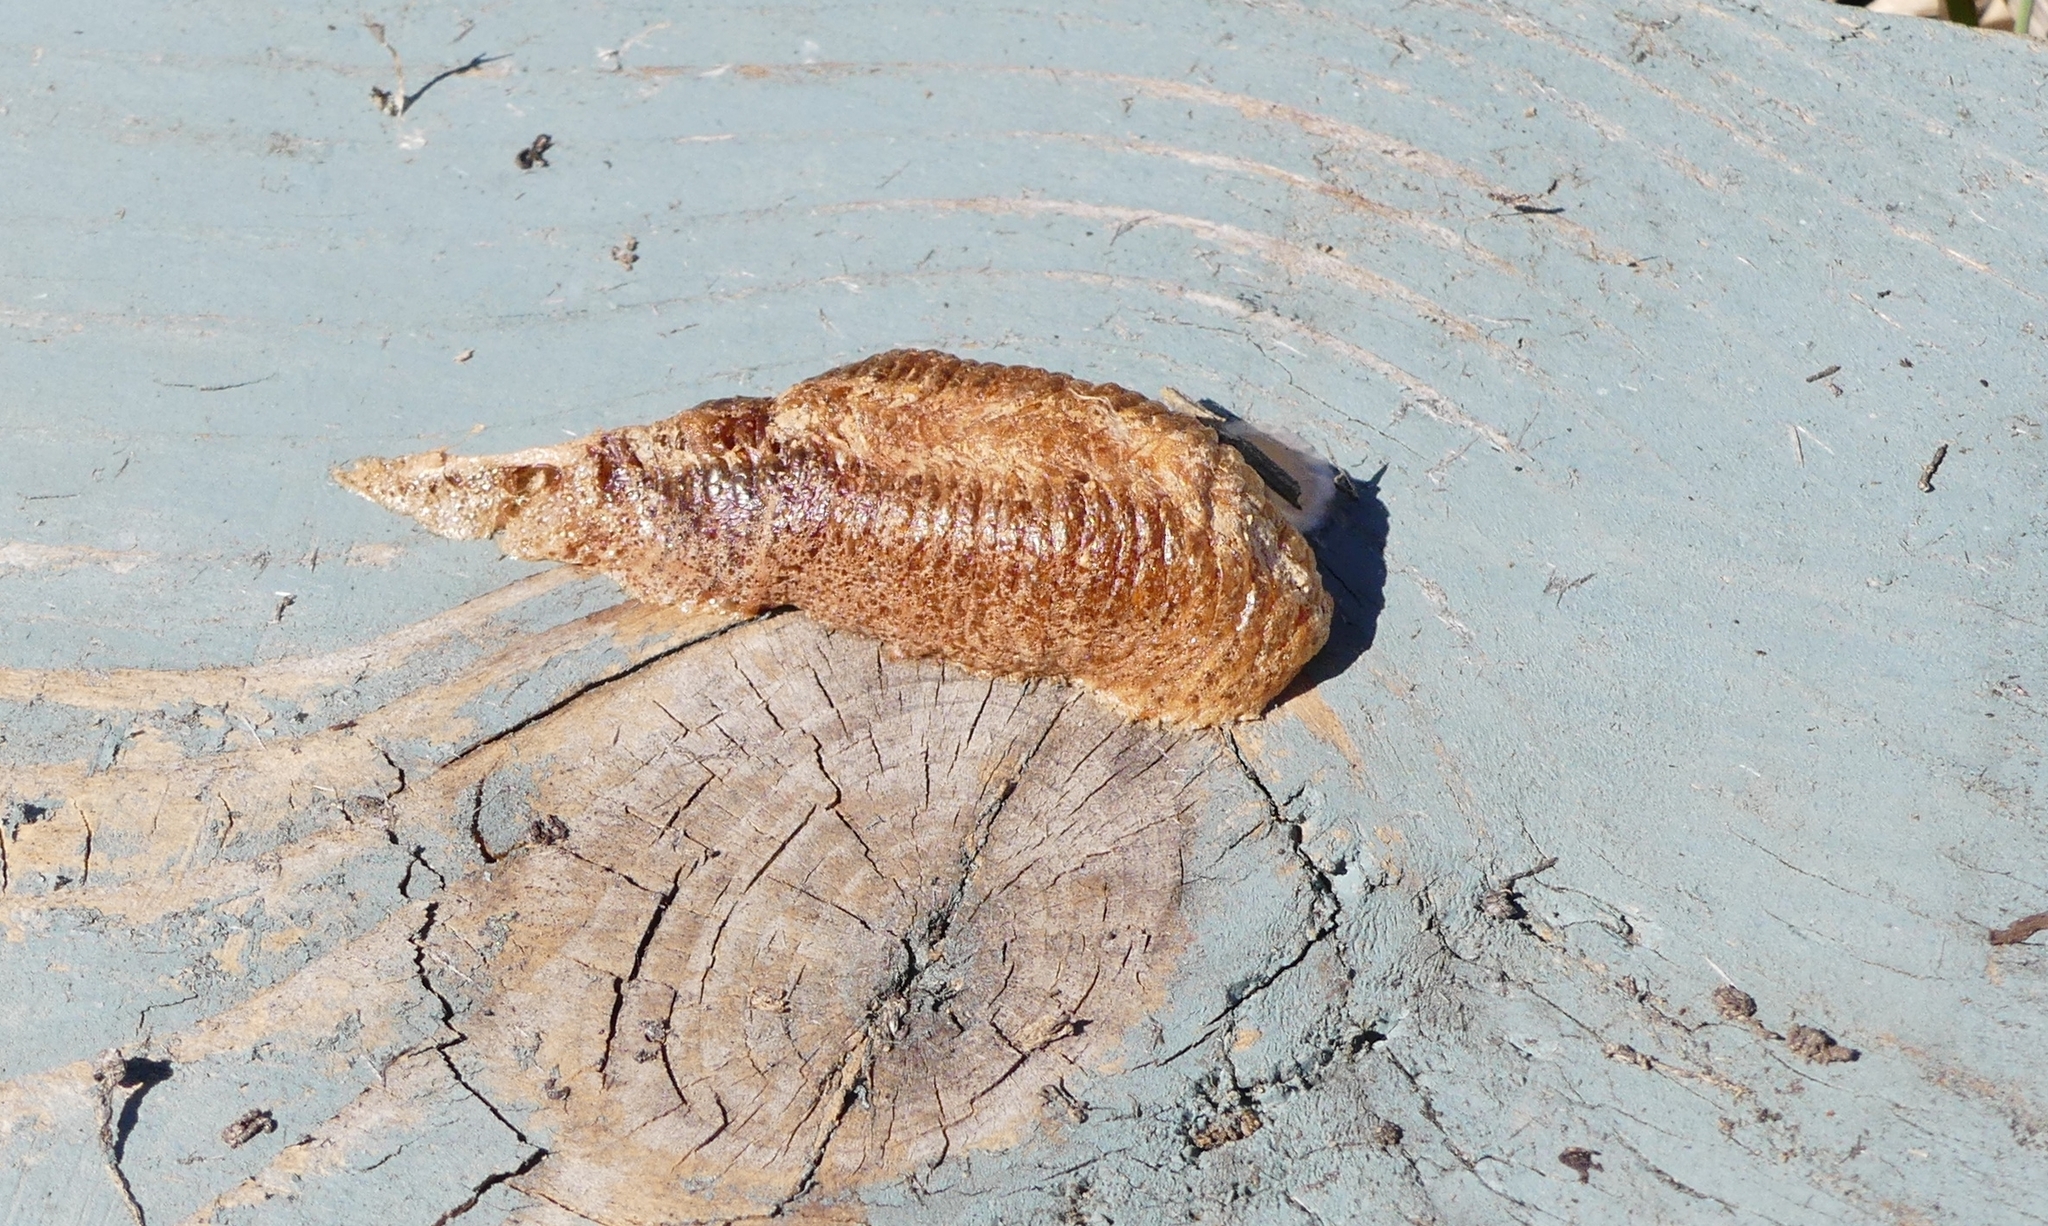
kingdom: Animalia
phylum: Arthropoda
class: Insecta
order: Mantodea
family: Mantidae
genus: Mantis
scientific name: Mantis religiosa
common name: Praying mantis
